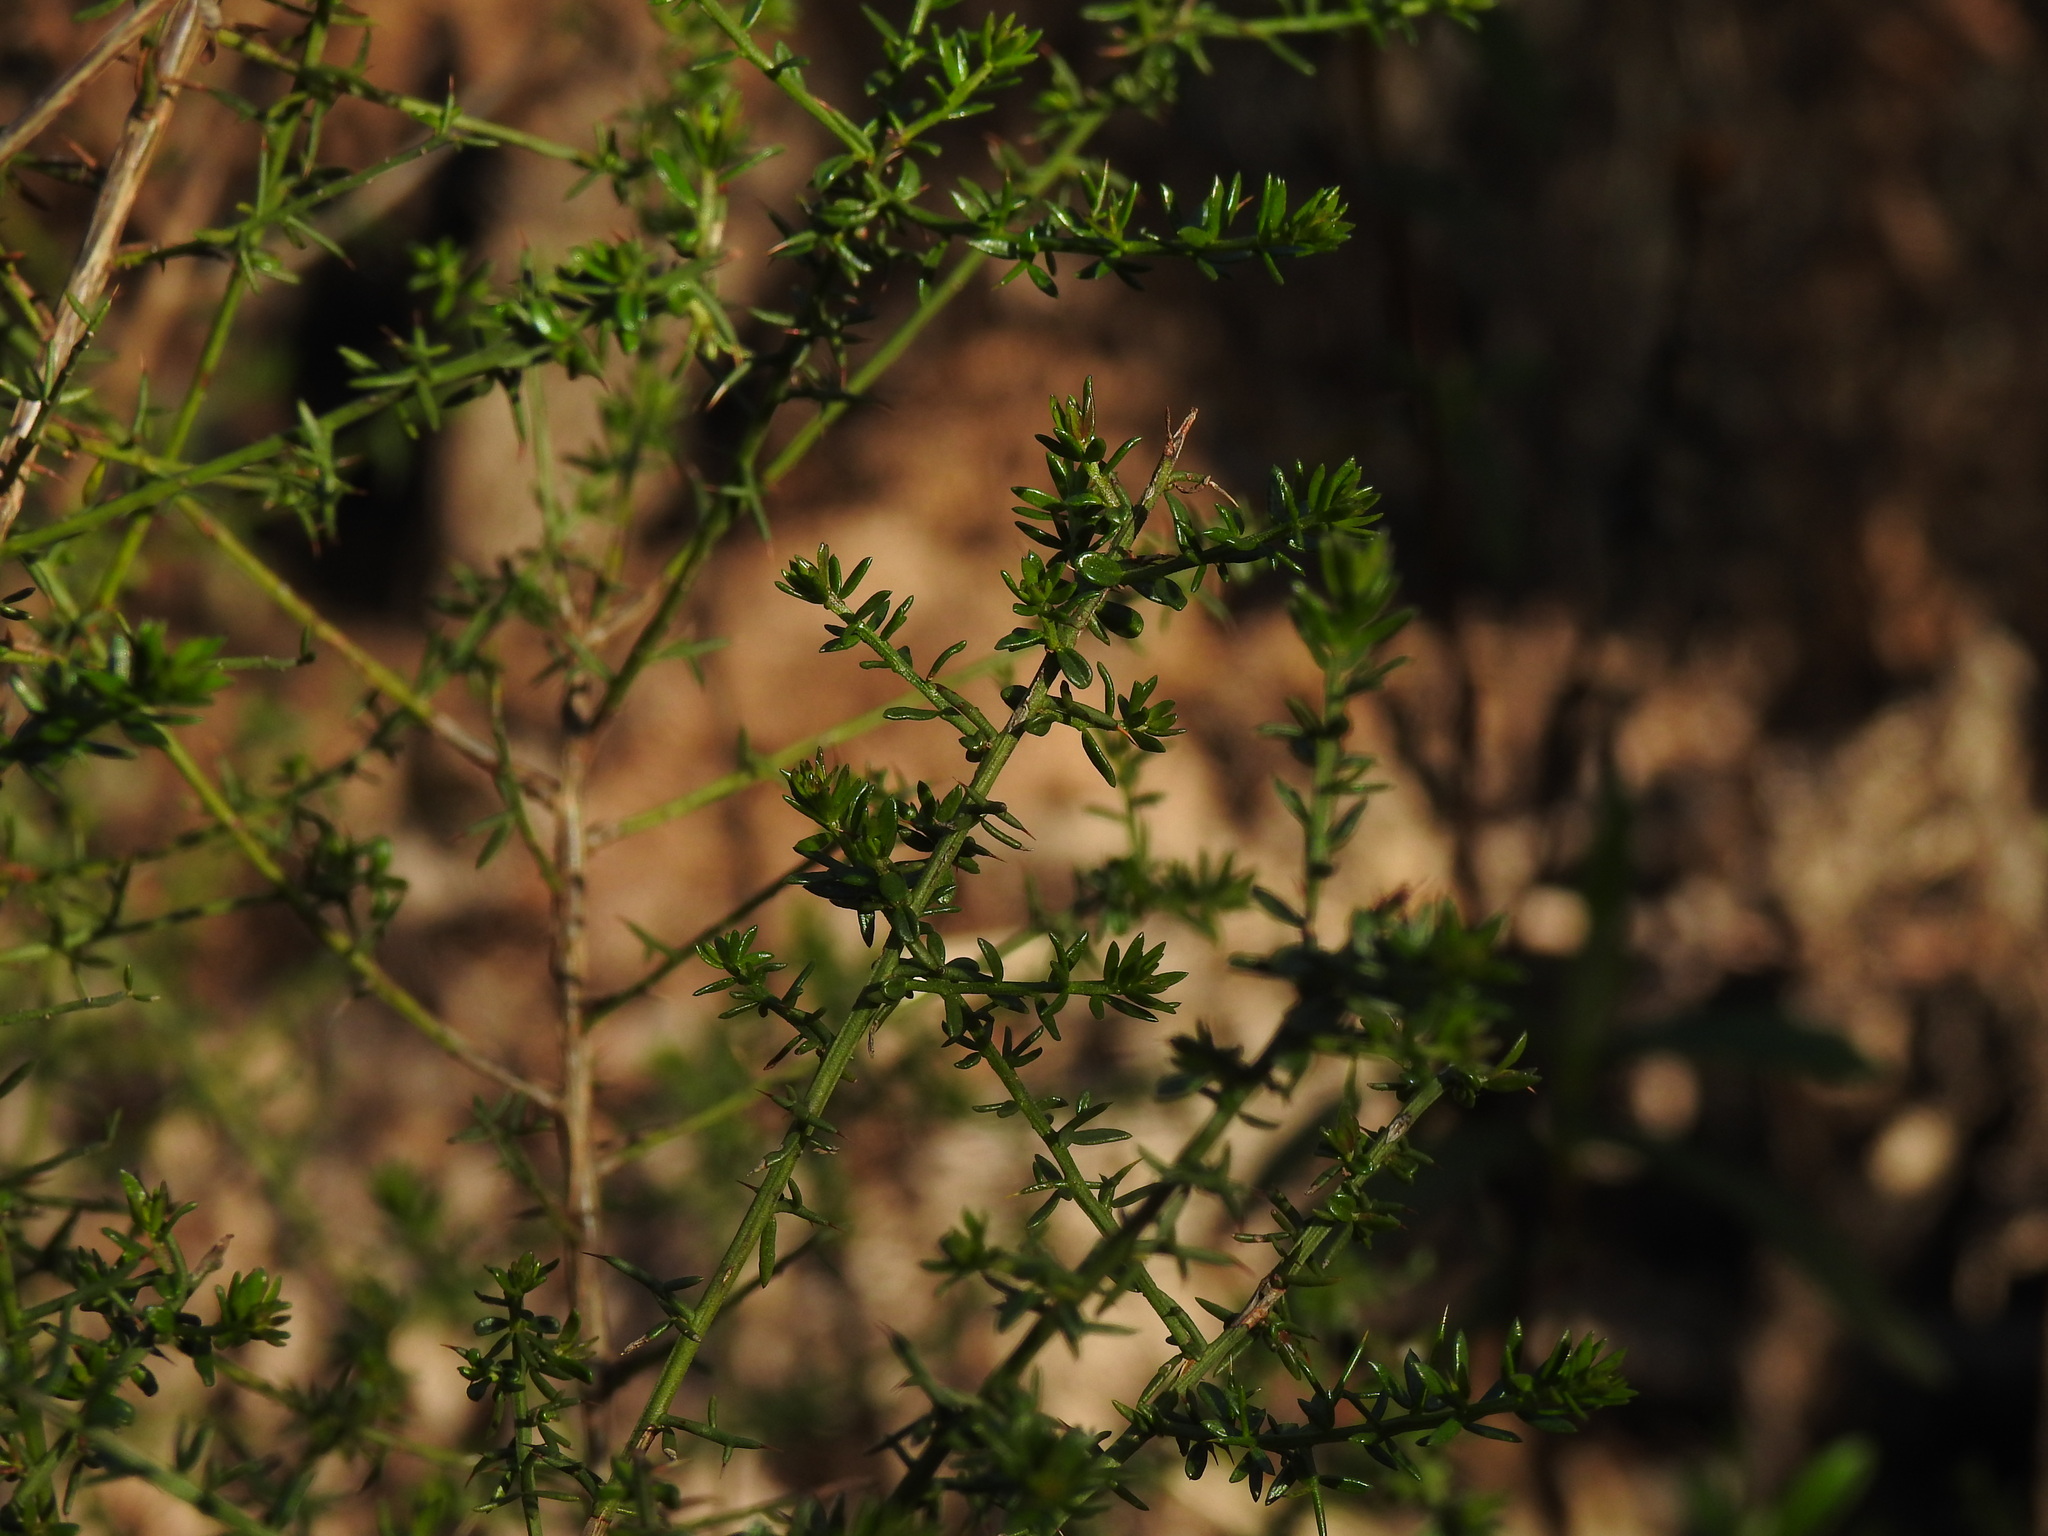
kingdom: Plantae
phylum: Tracheophyta
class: Magnoliopsida
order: Fabales
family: Fabaceae
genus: Genista
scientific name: Genista triacanthos
